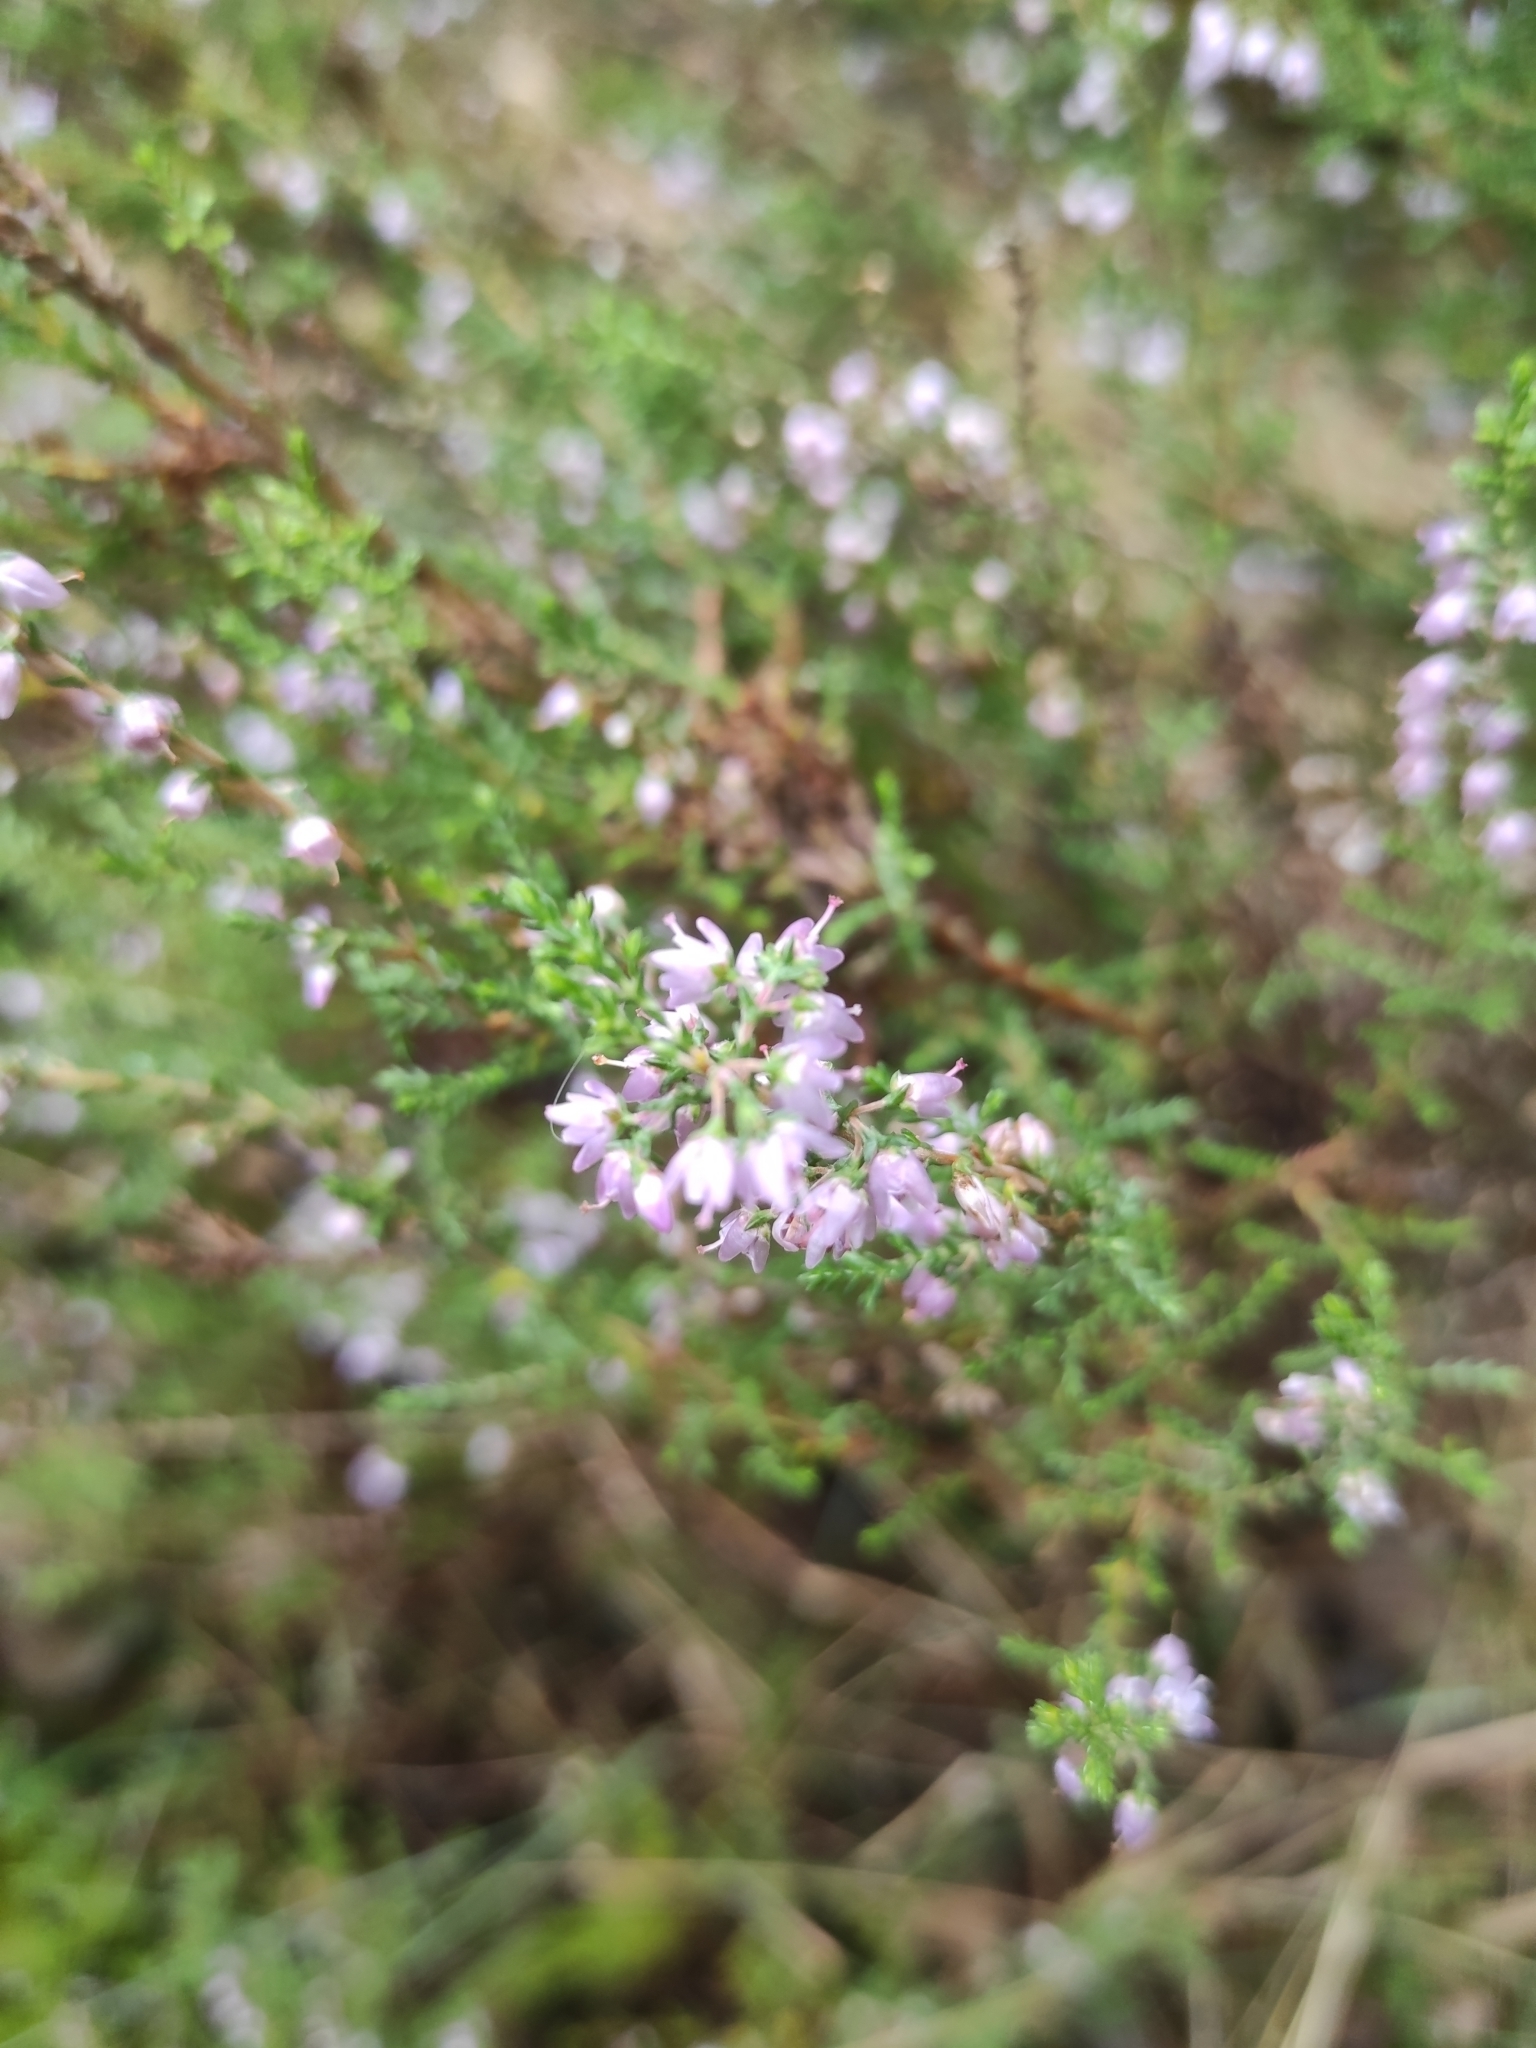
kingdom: Plantae
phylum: Tracheophyta
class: Magnoliopsida
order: Ericales
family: Ericaceae
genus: Calluna
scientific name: Calluna vulgaris
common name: Heather
